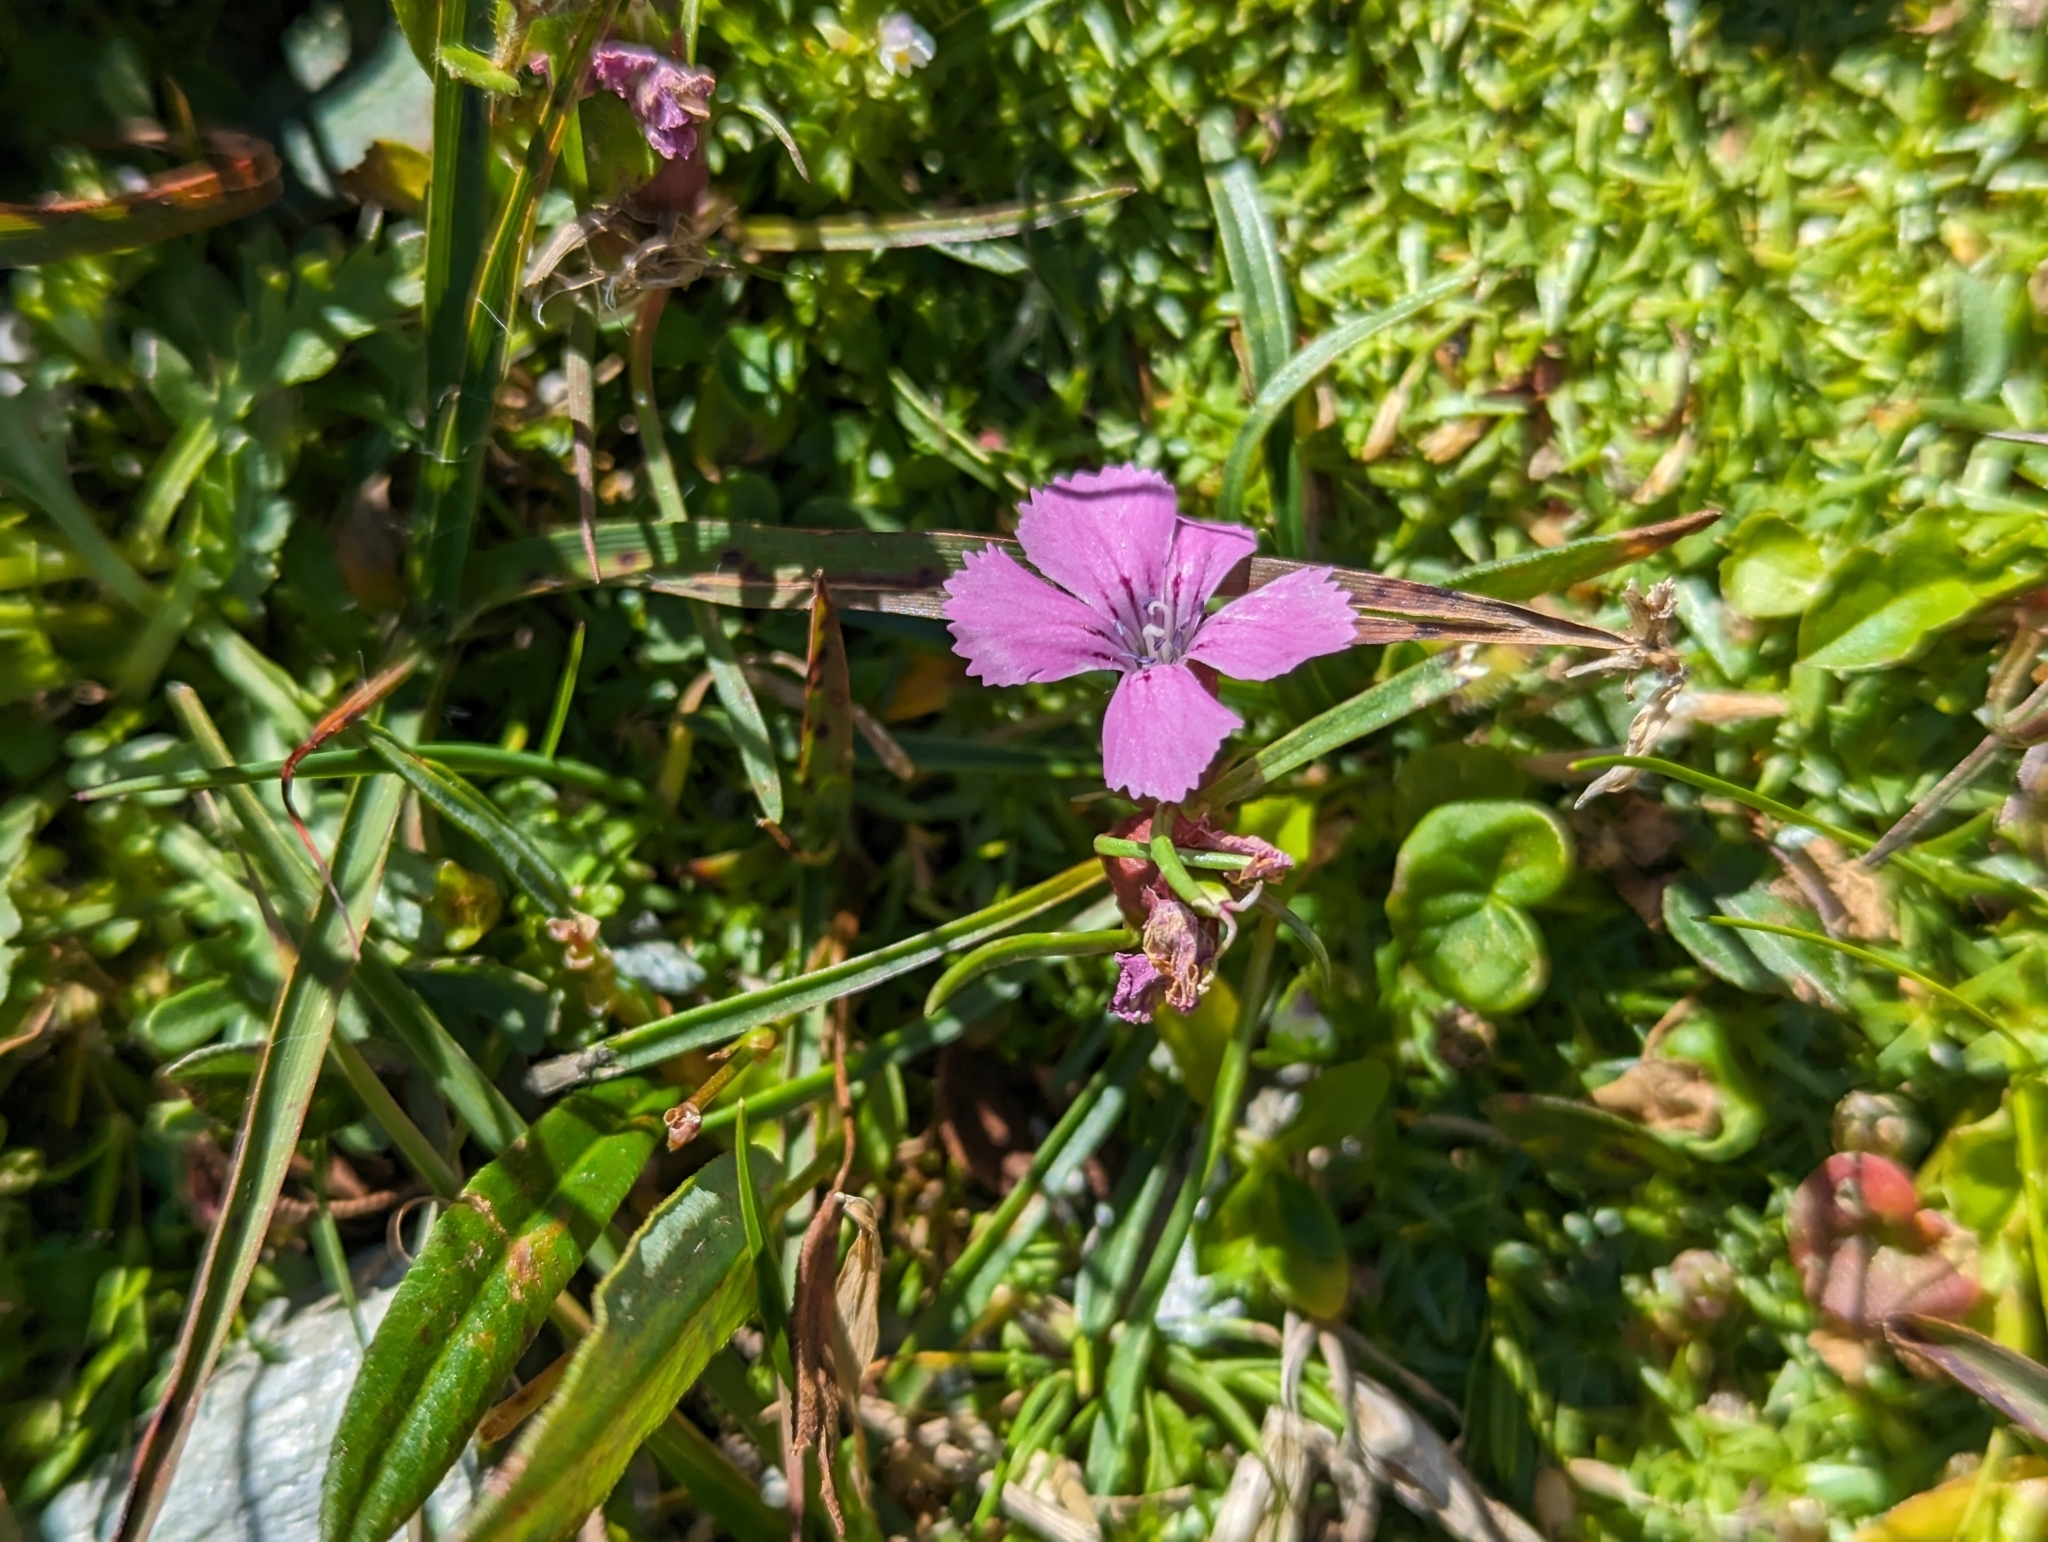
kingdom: Plantae
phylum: Tracheophyta
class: Magnoliopsida
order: Caryophyllales
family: Caryophyllaceae
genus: Dianthus
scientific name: Dianthus glacialis
